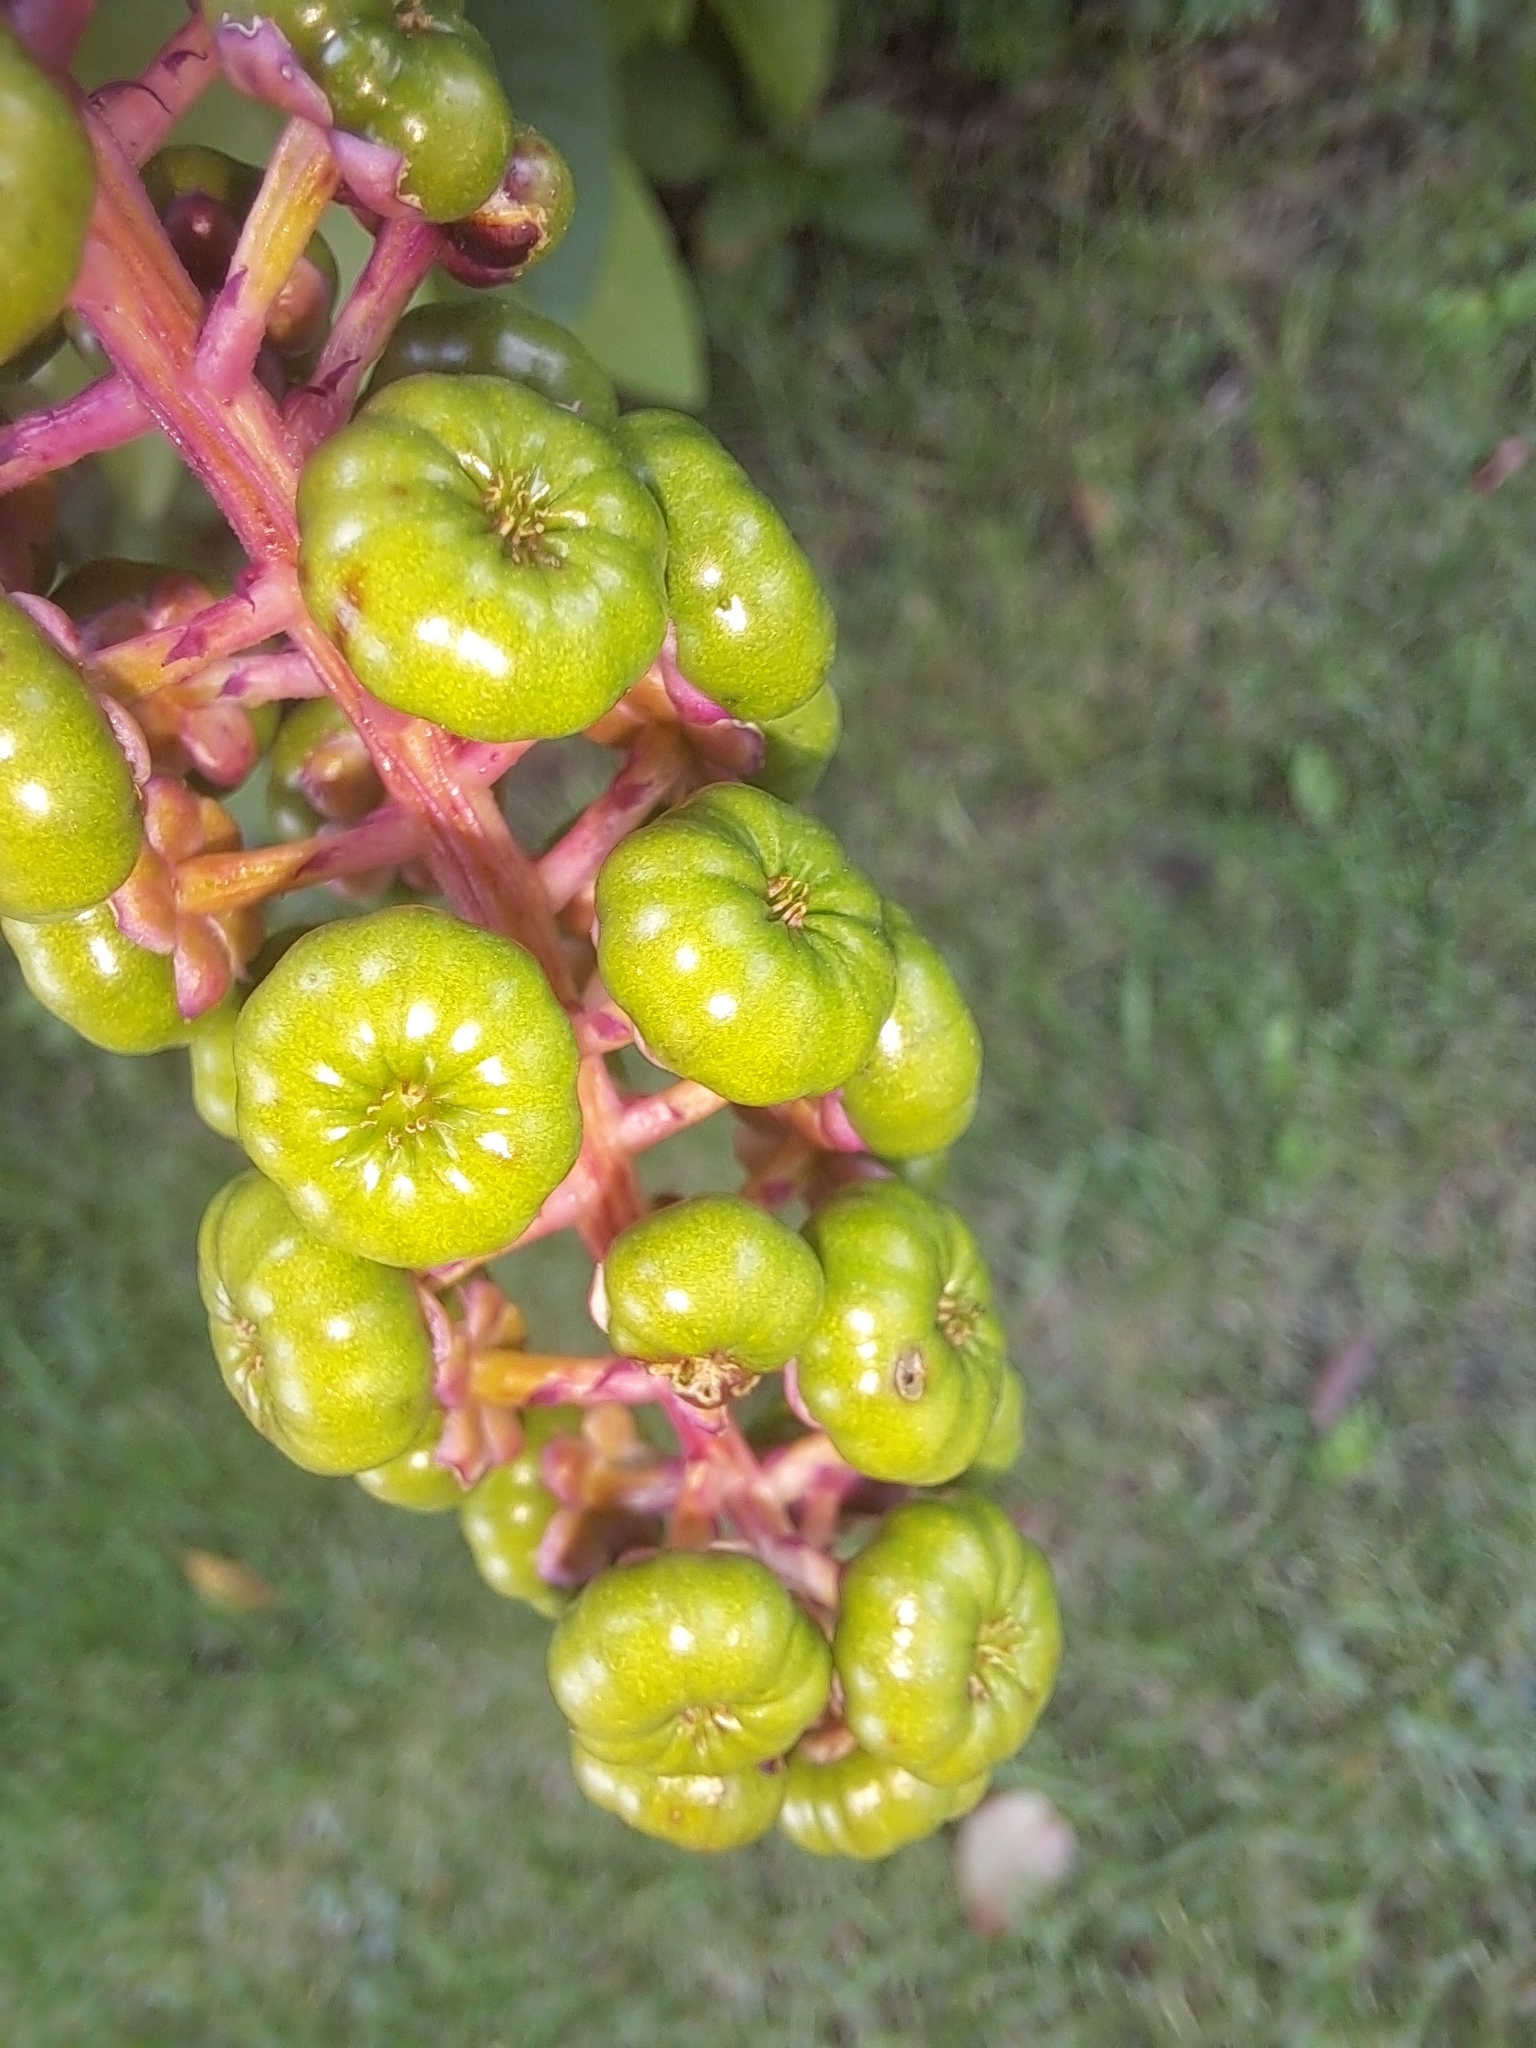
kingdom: Plantae
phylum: Tracheophyta
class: Magnoliopsida
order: Caryophyllales
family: Phytolaccaceae
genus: Phytolacca
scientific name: Phytolacca americana
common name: American pokeweed
